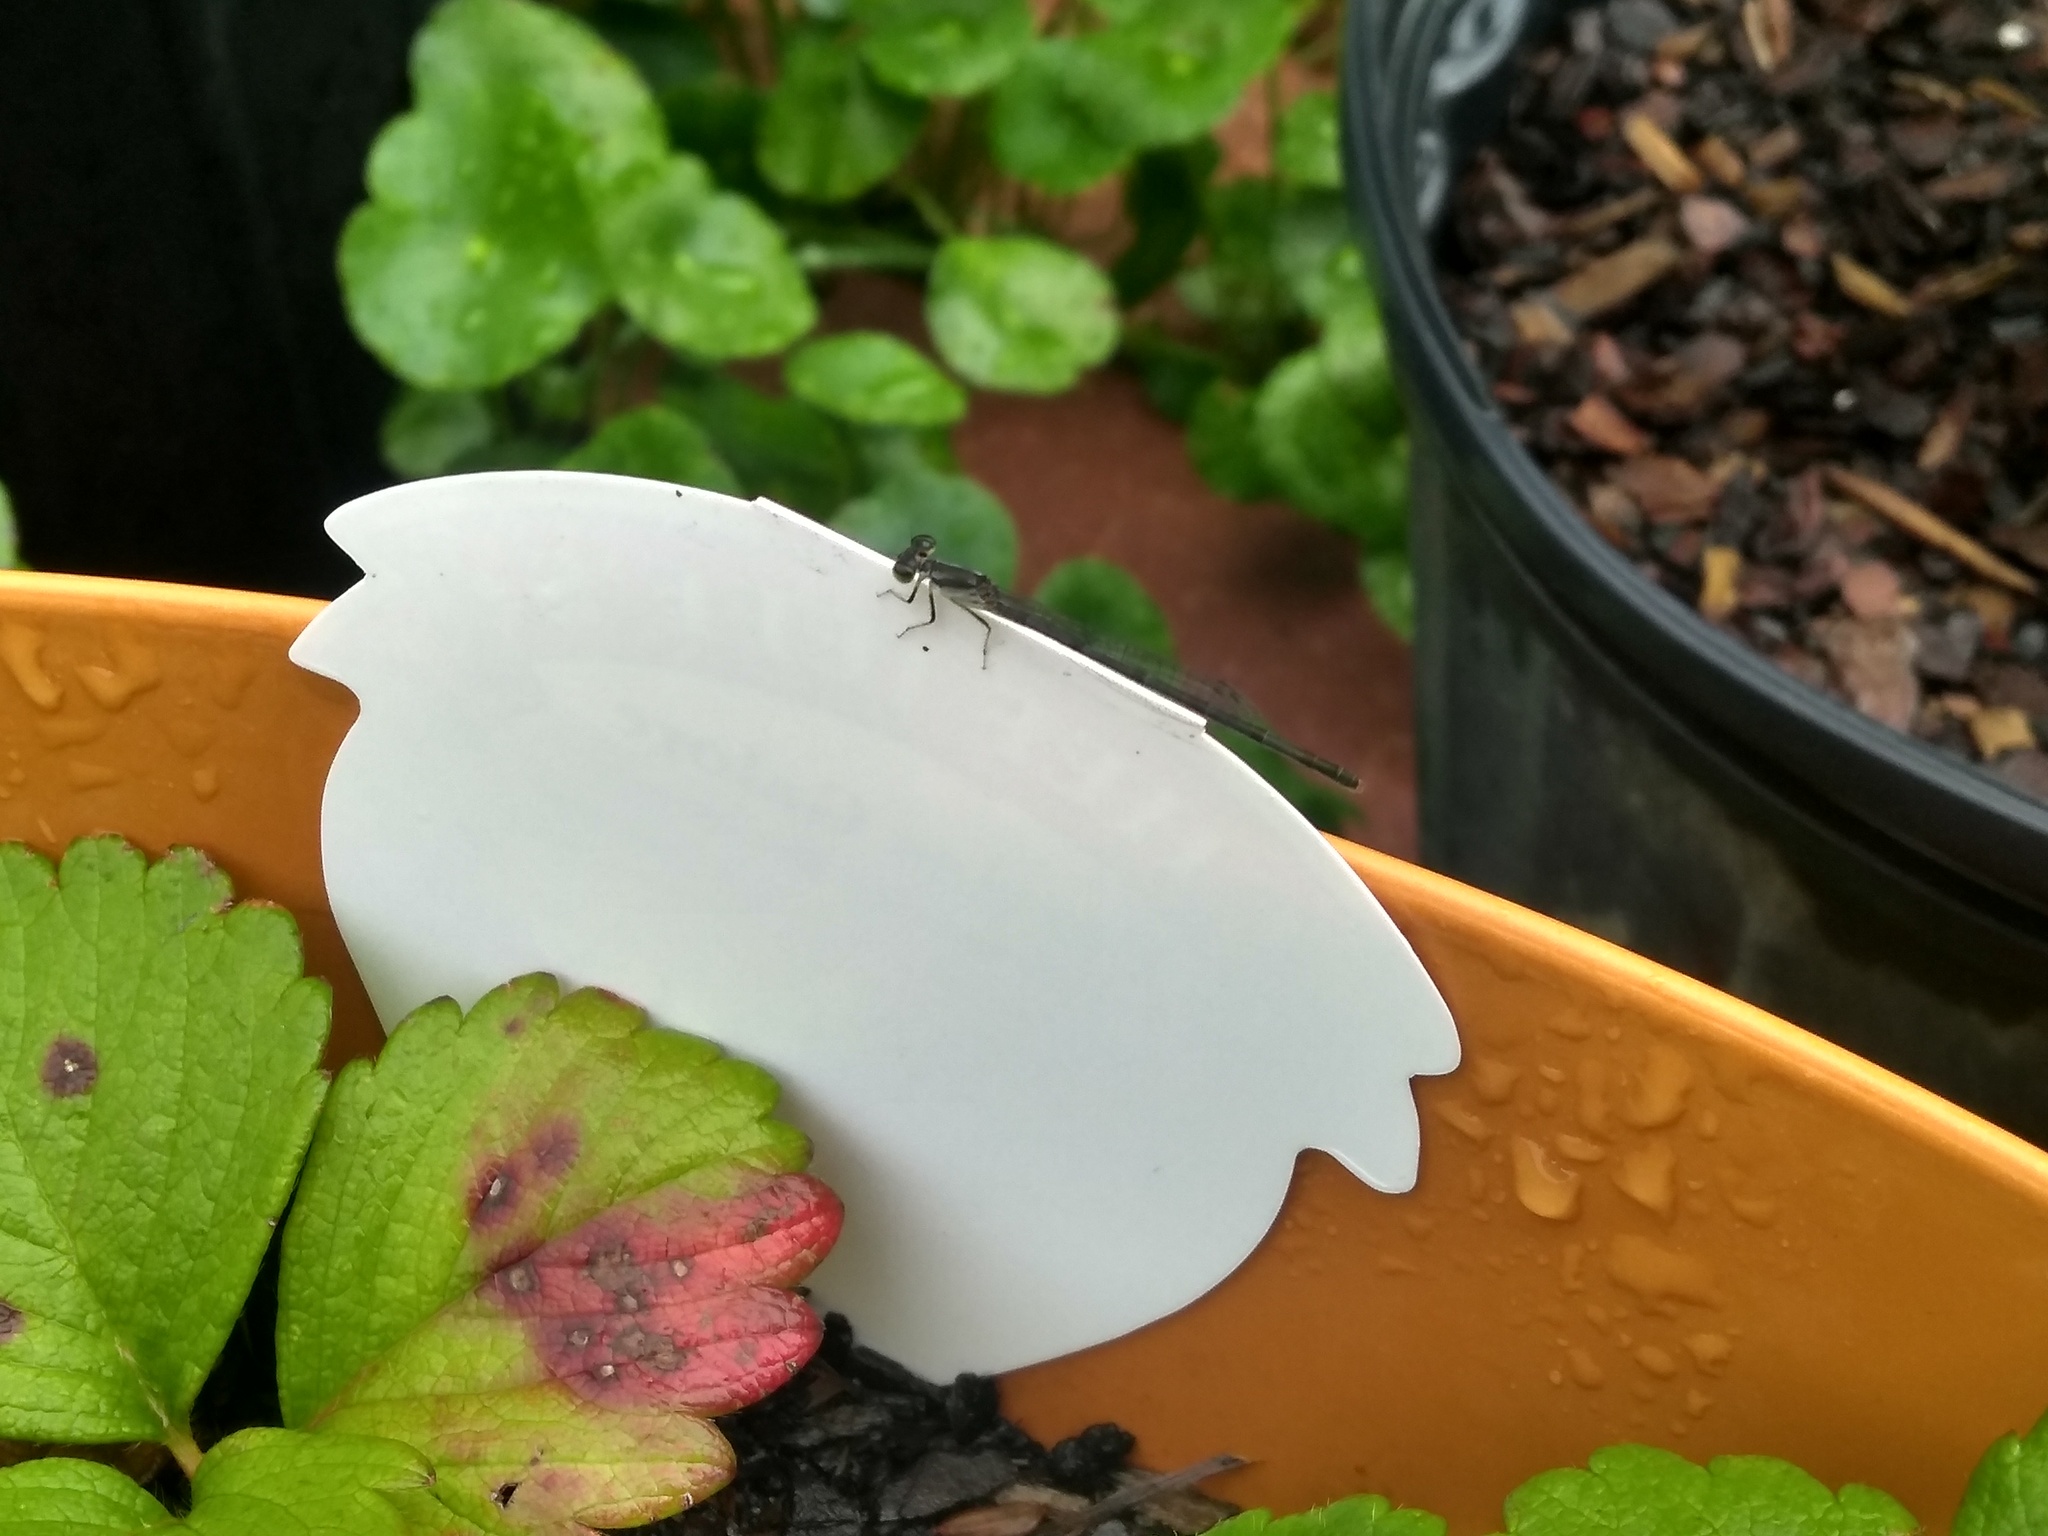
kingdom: Animalia
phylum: Arthropoda
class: Insecta
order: Odonata
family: Coenagrionidae
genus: Ischnura
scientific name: Ischnura posita
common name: Fragile forktail
